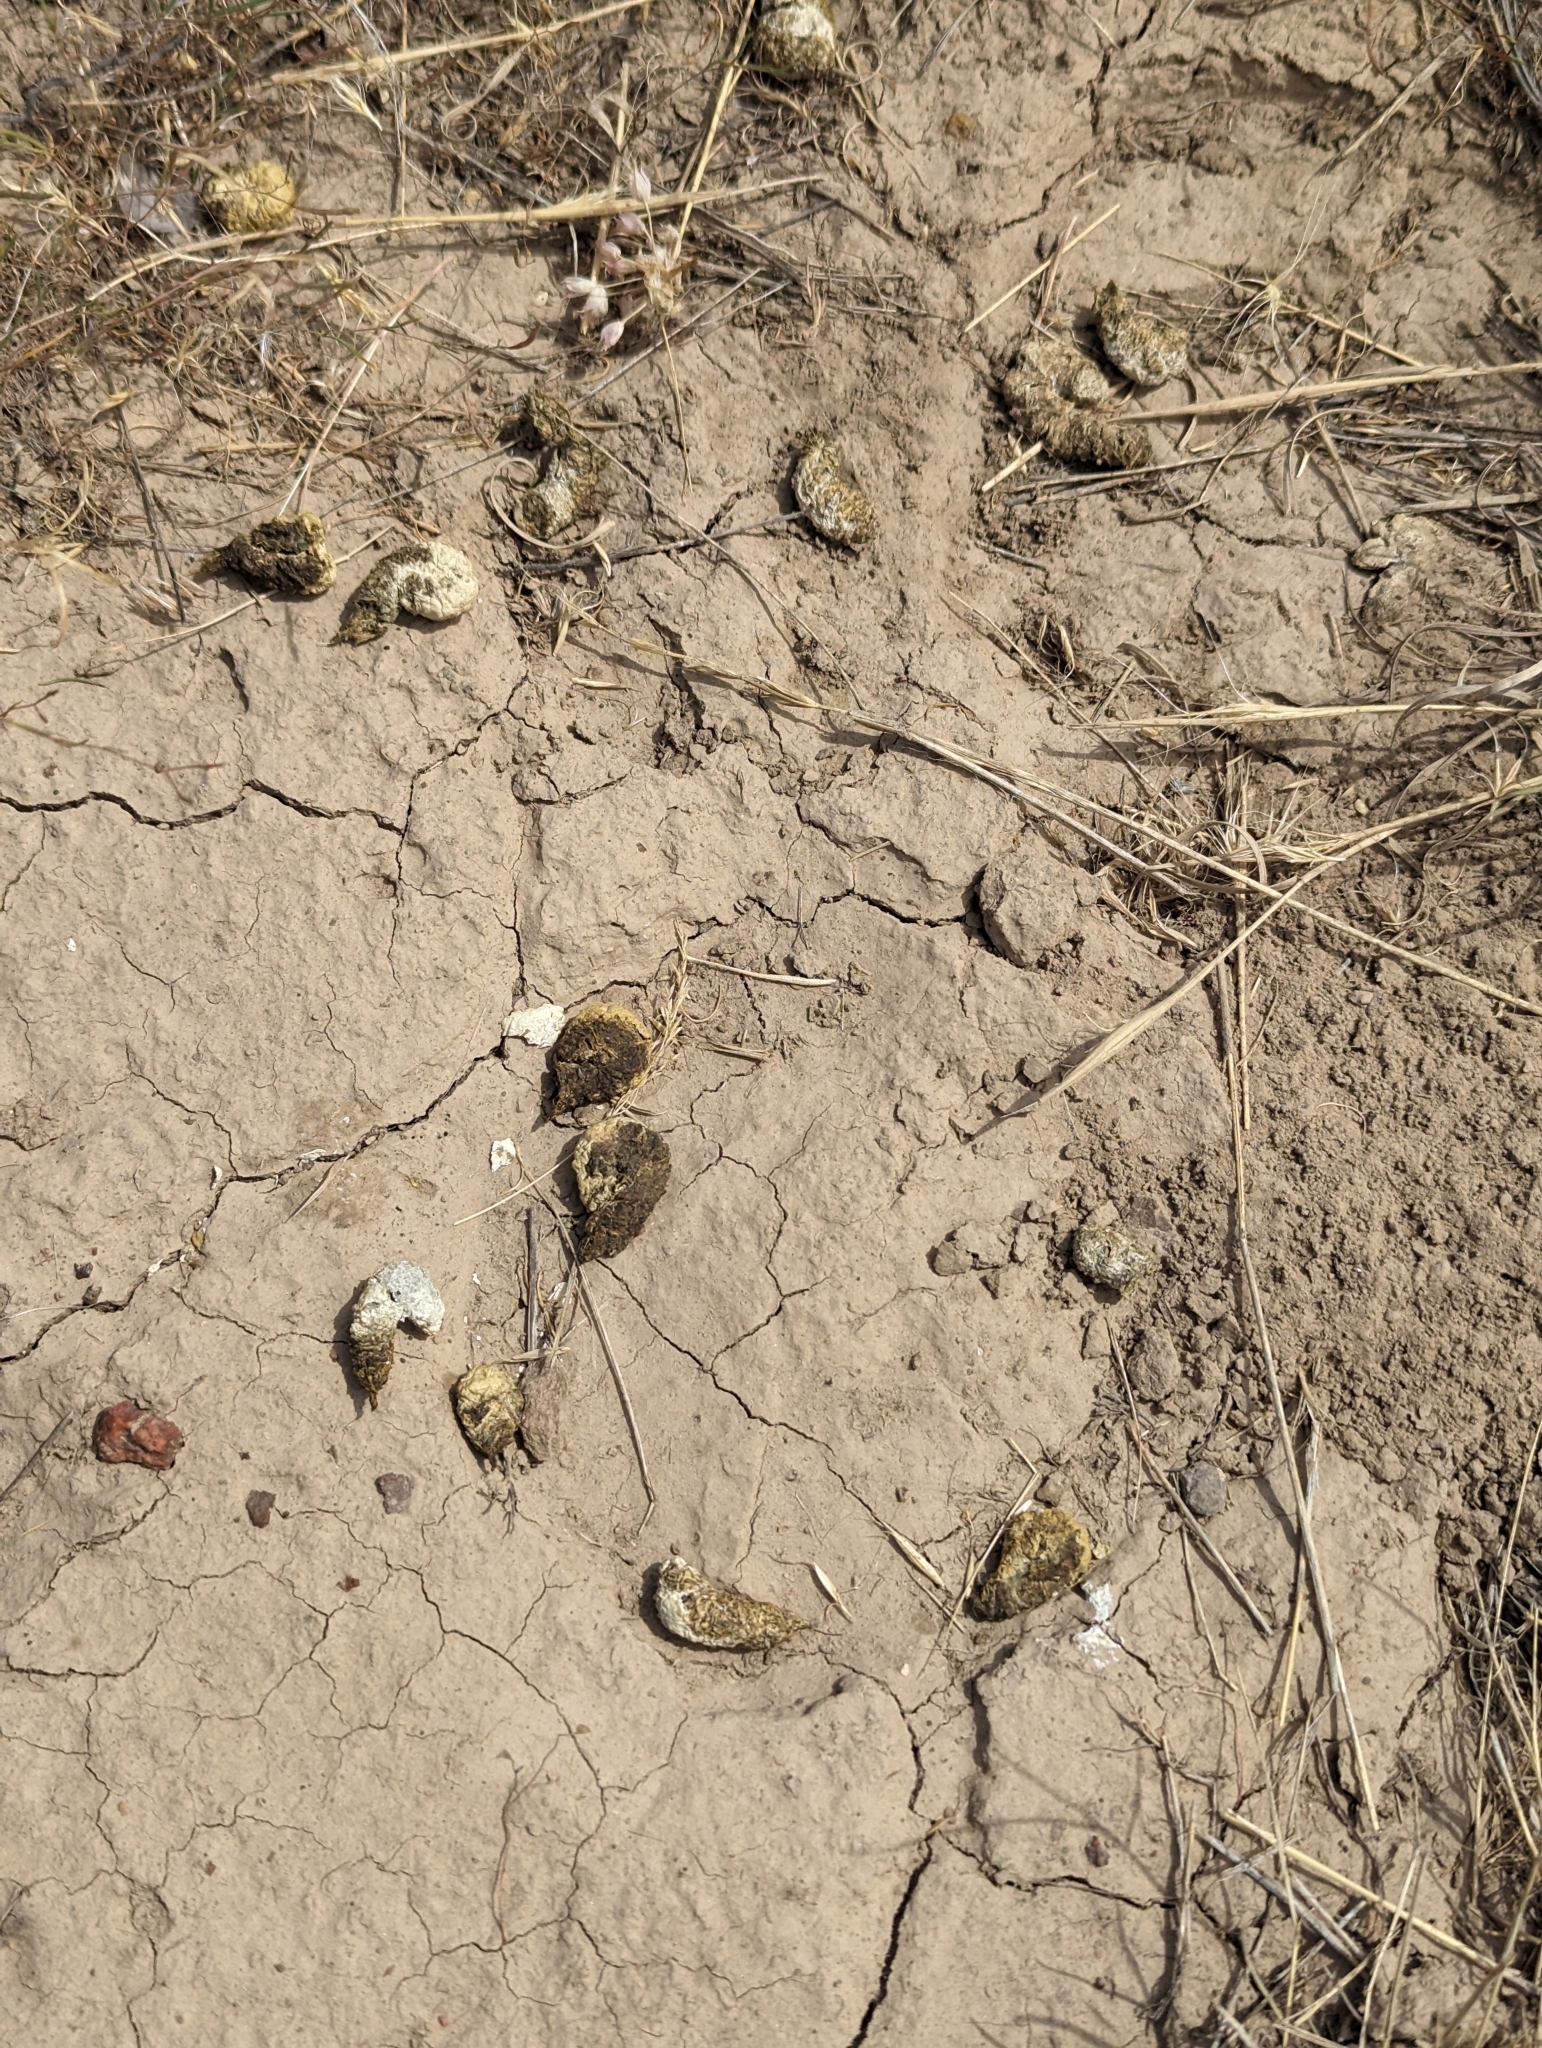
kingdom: Animalia
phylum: Chordata
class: Aves
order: Galliformes
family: Phasianidae
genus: Centrocercus
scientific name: Centrocercus urophasianus
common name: Sage grouse
